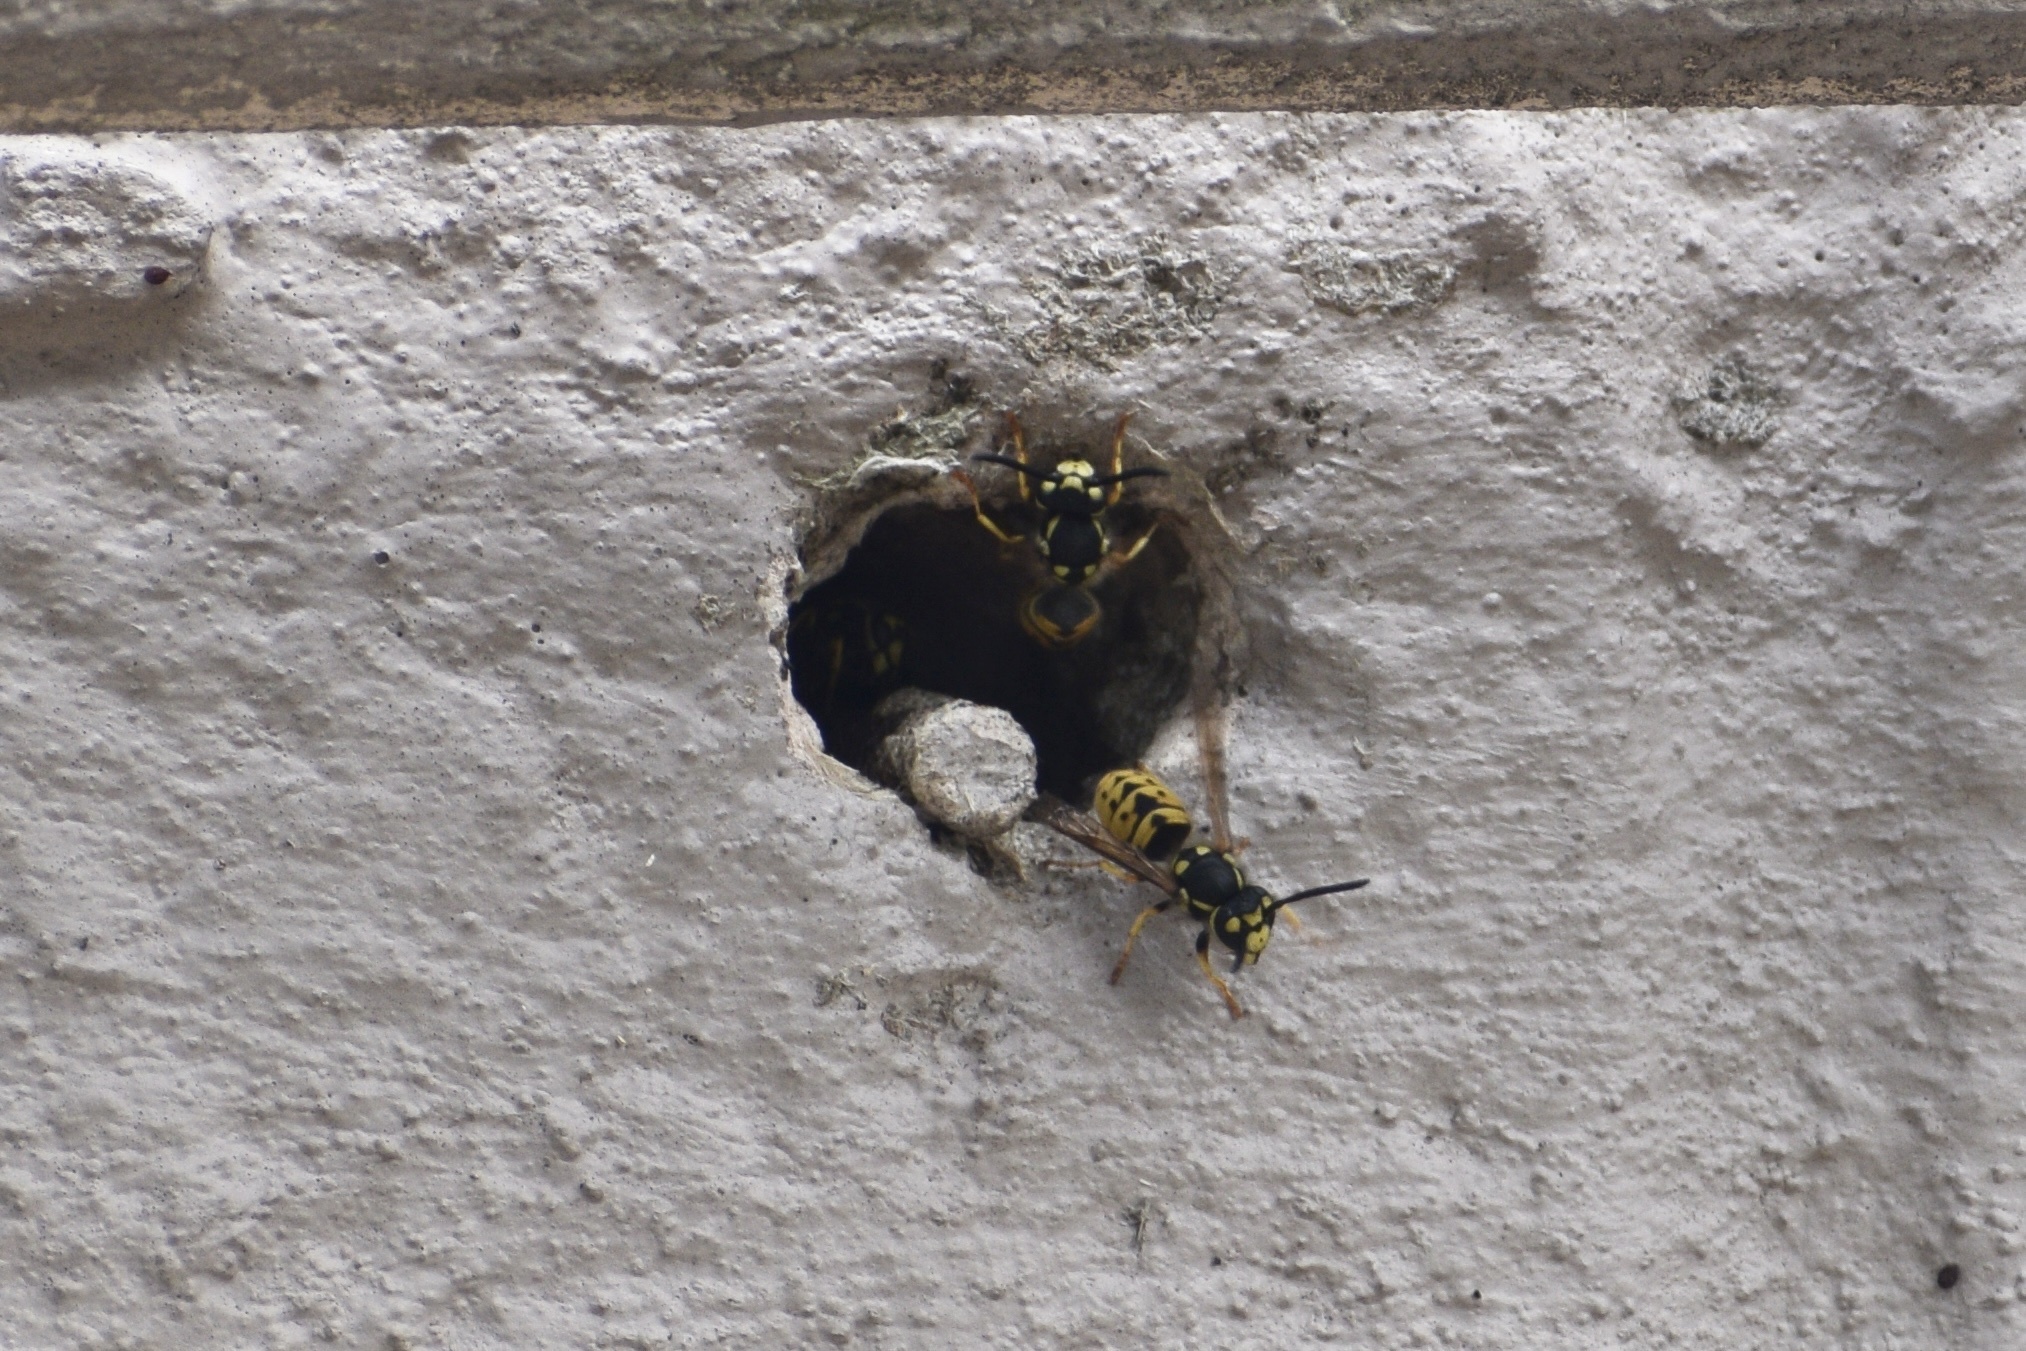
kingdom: Animalia
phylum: Arthropoda
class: Insecta
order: Hymenoptera
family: Vespidae
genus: Vespula
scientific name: Vespula germanica
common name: German wasp
